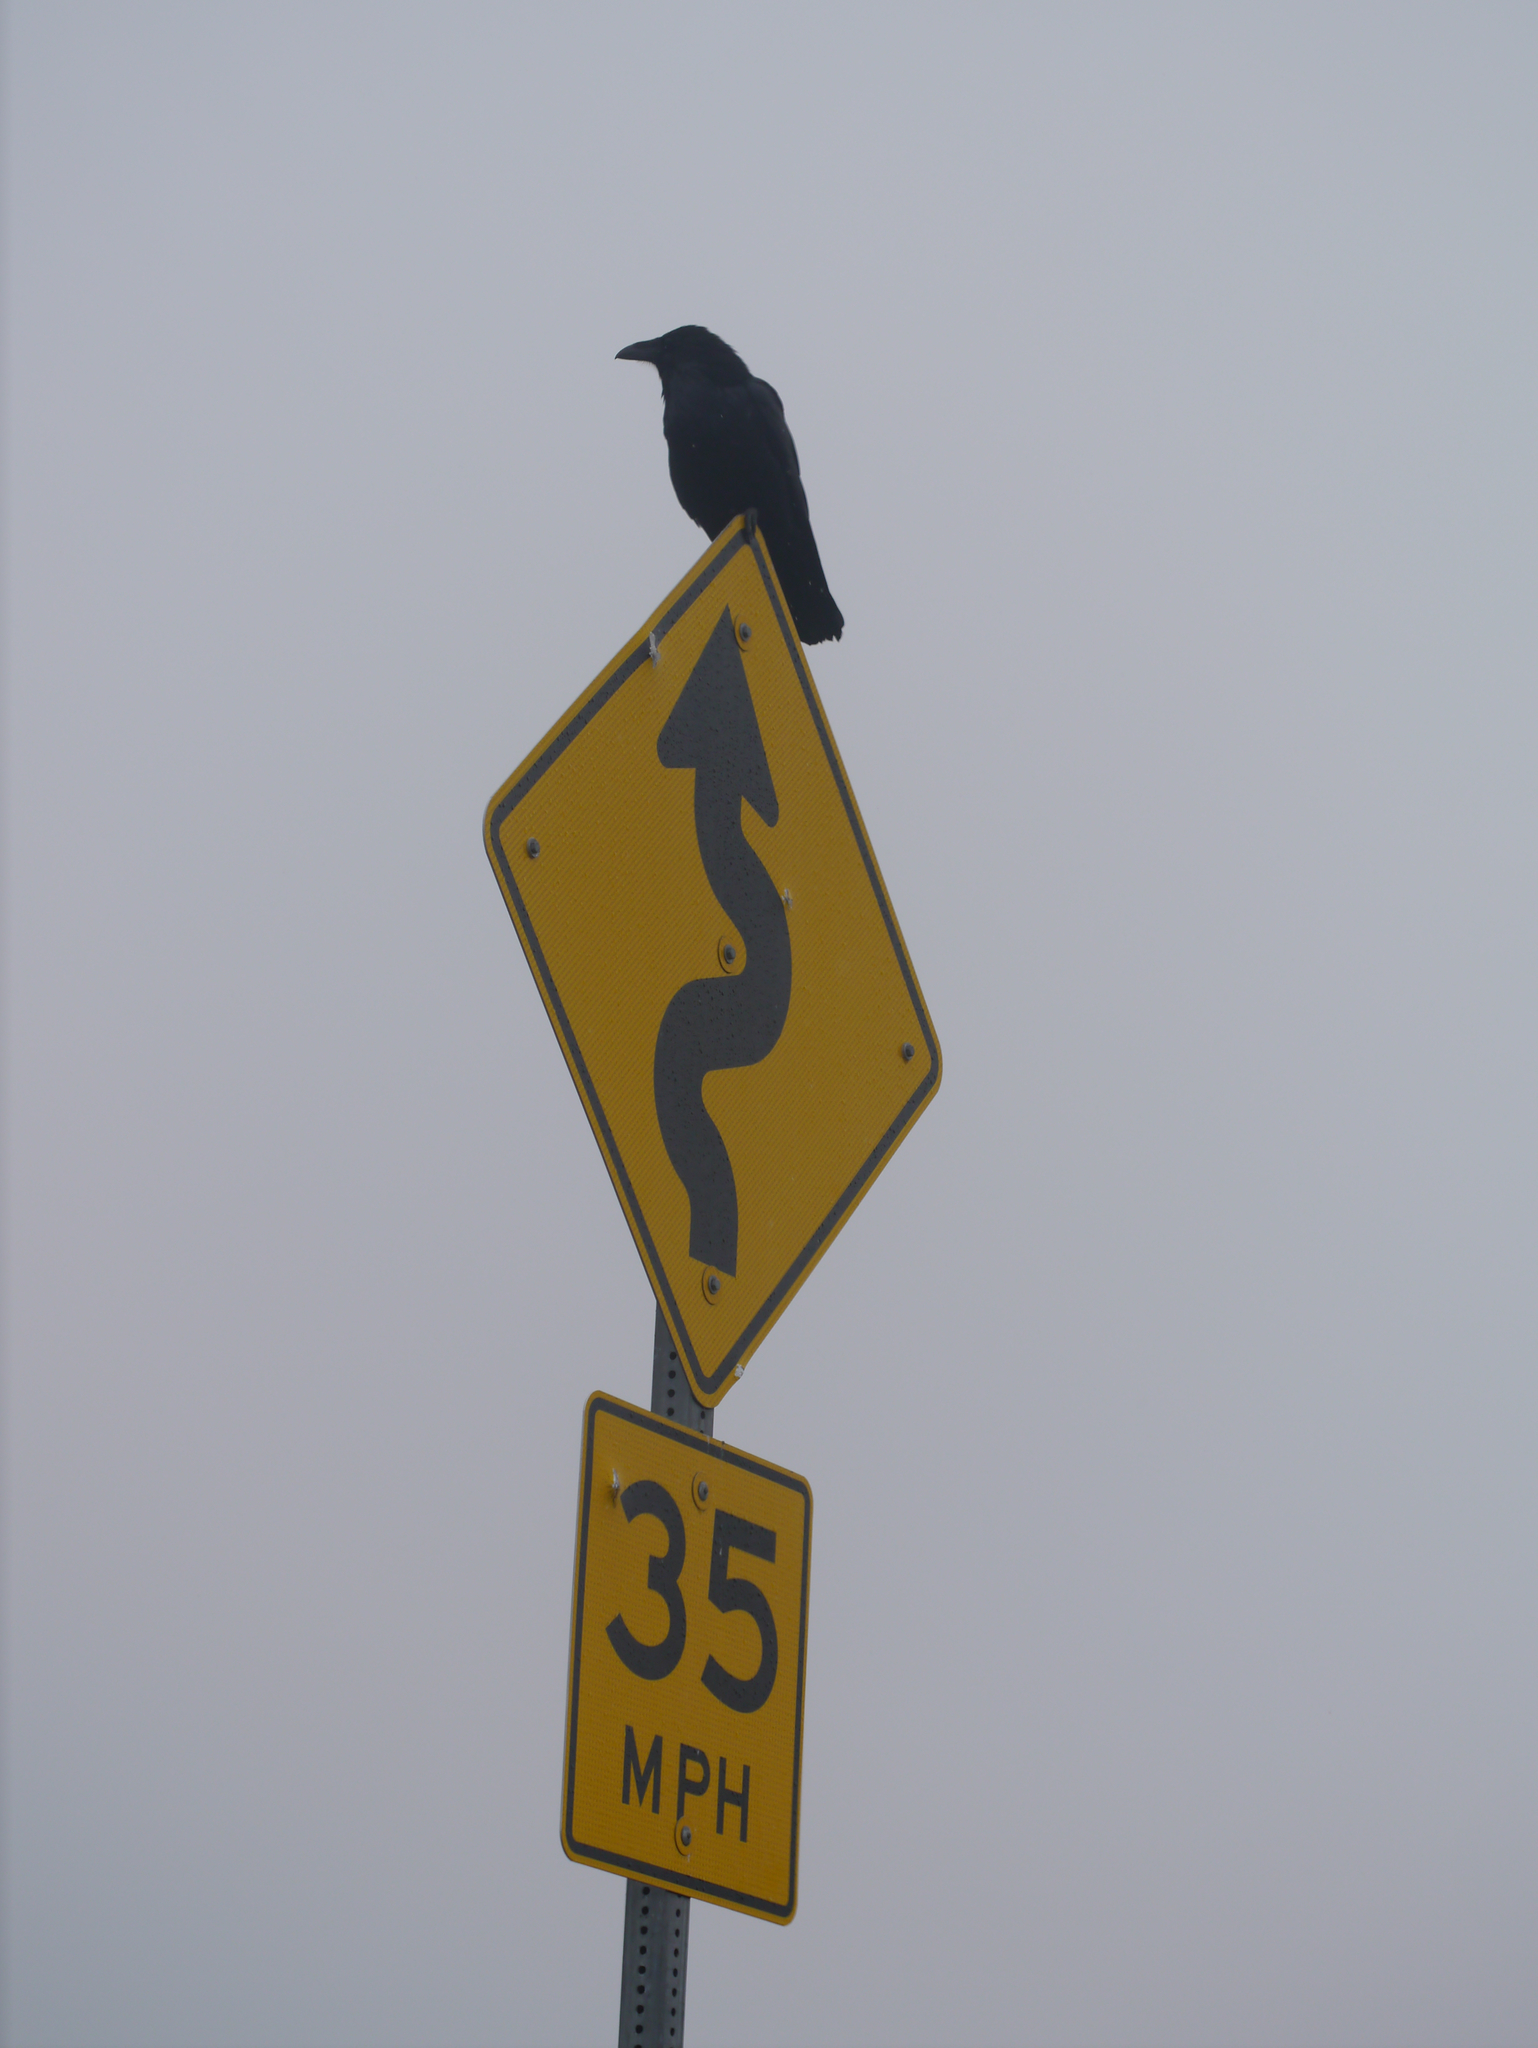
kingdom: Animalia
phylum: Chordata
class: Aves
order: Passeriformes
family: Corvidae
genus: Corvus
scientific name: Corvus corax
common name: Common raven
